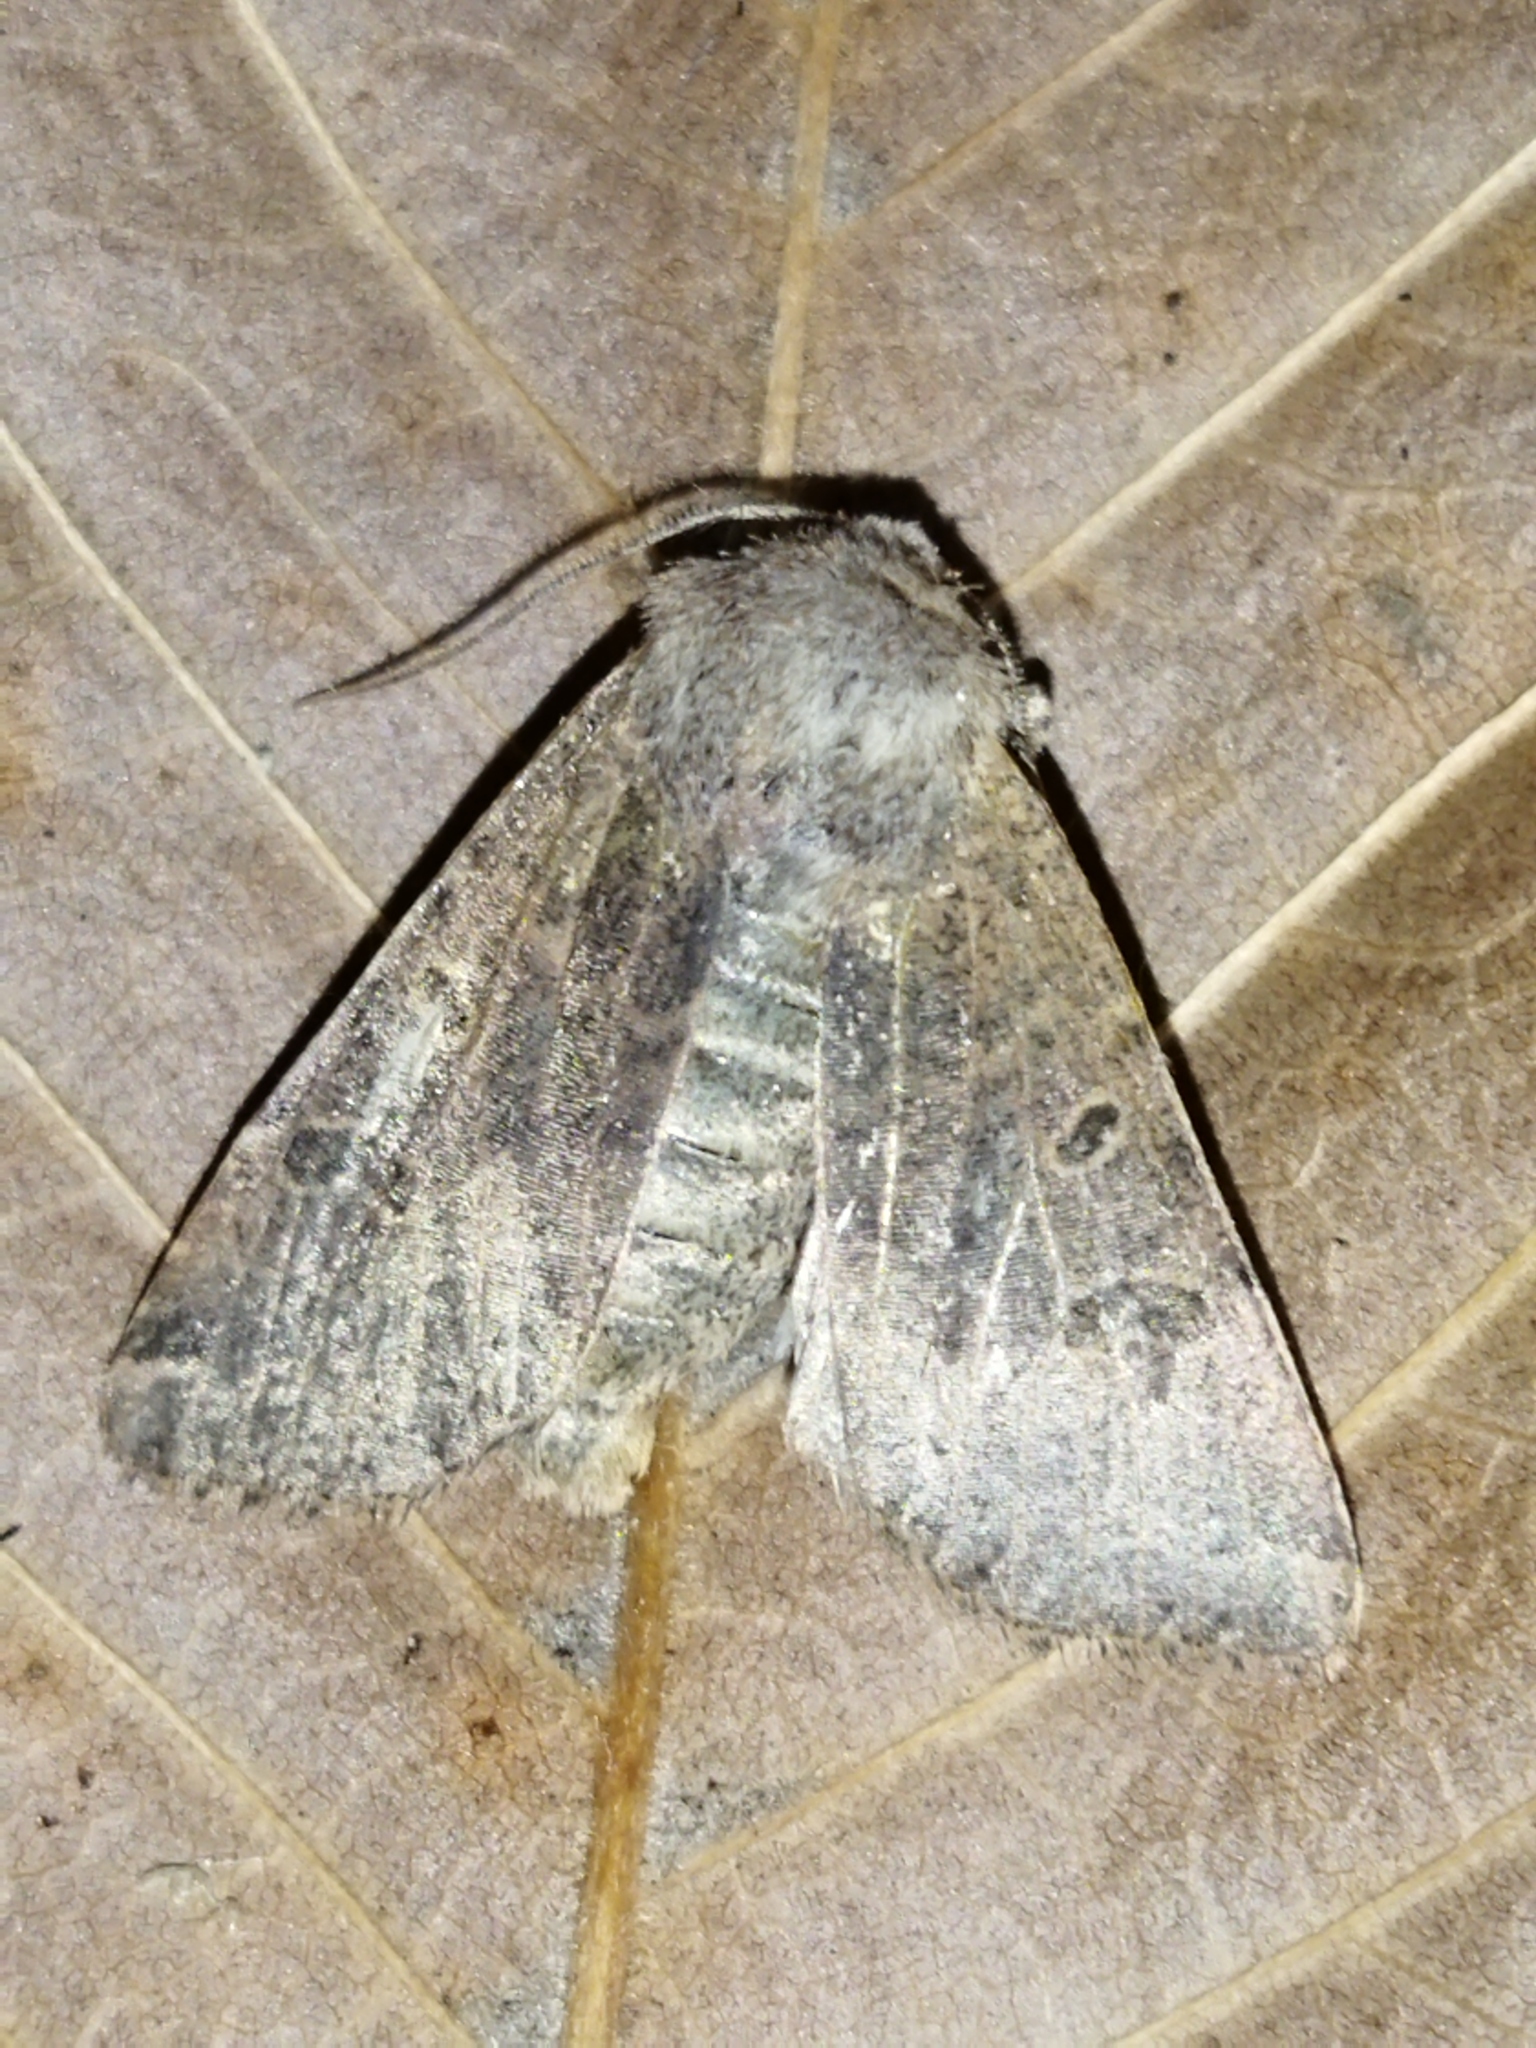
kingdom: Animalia
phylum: Arthropoda
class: Insecta
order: Lepidoptera
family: Noctuidae
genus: Agrochola
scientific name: Agrochola lychnidis
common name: Beaded chestnut
